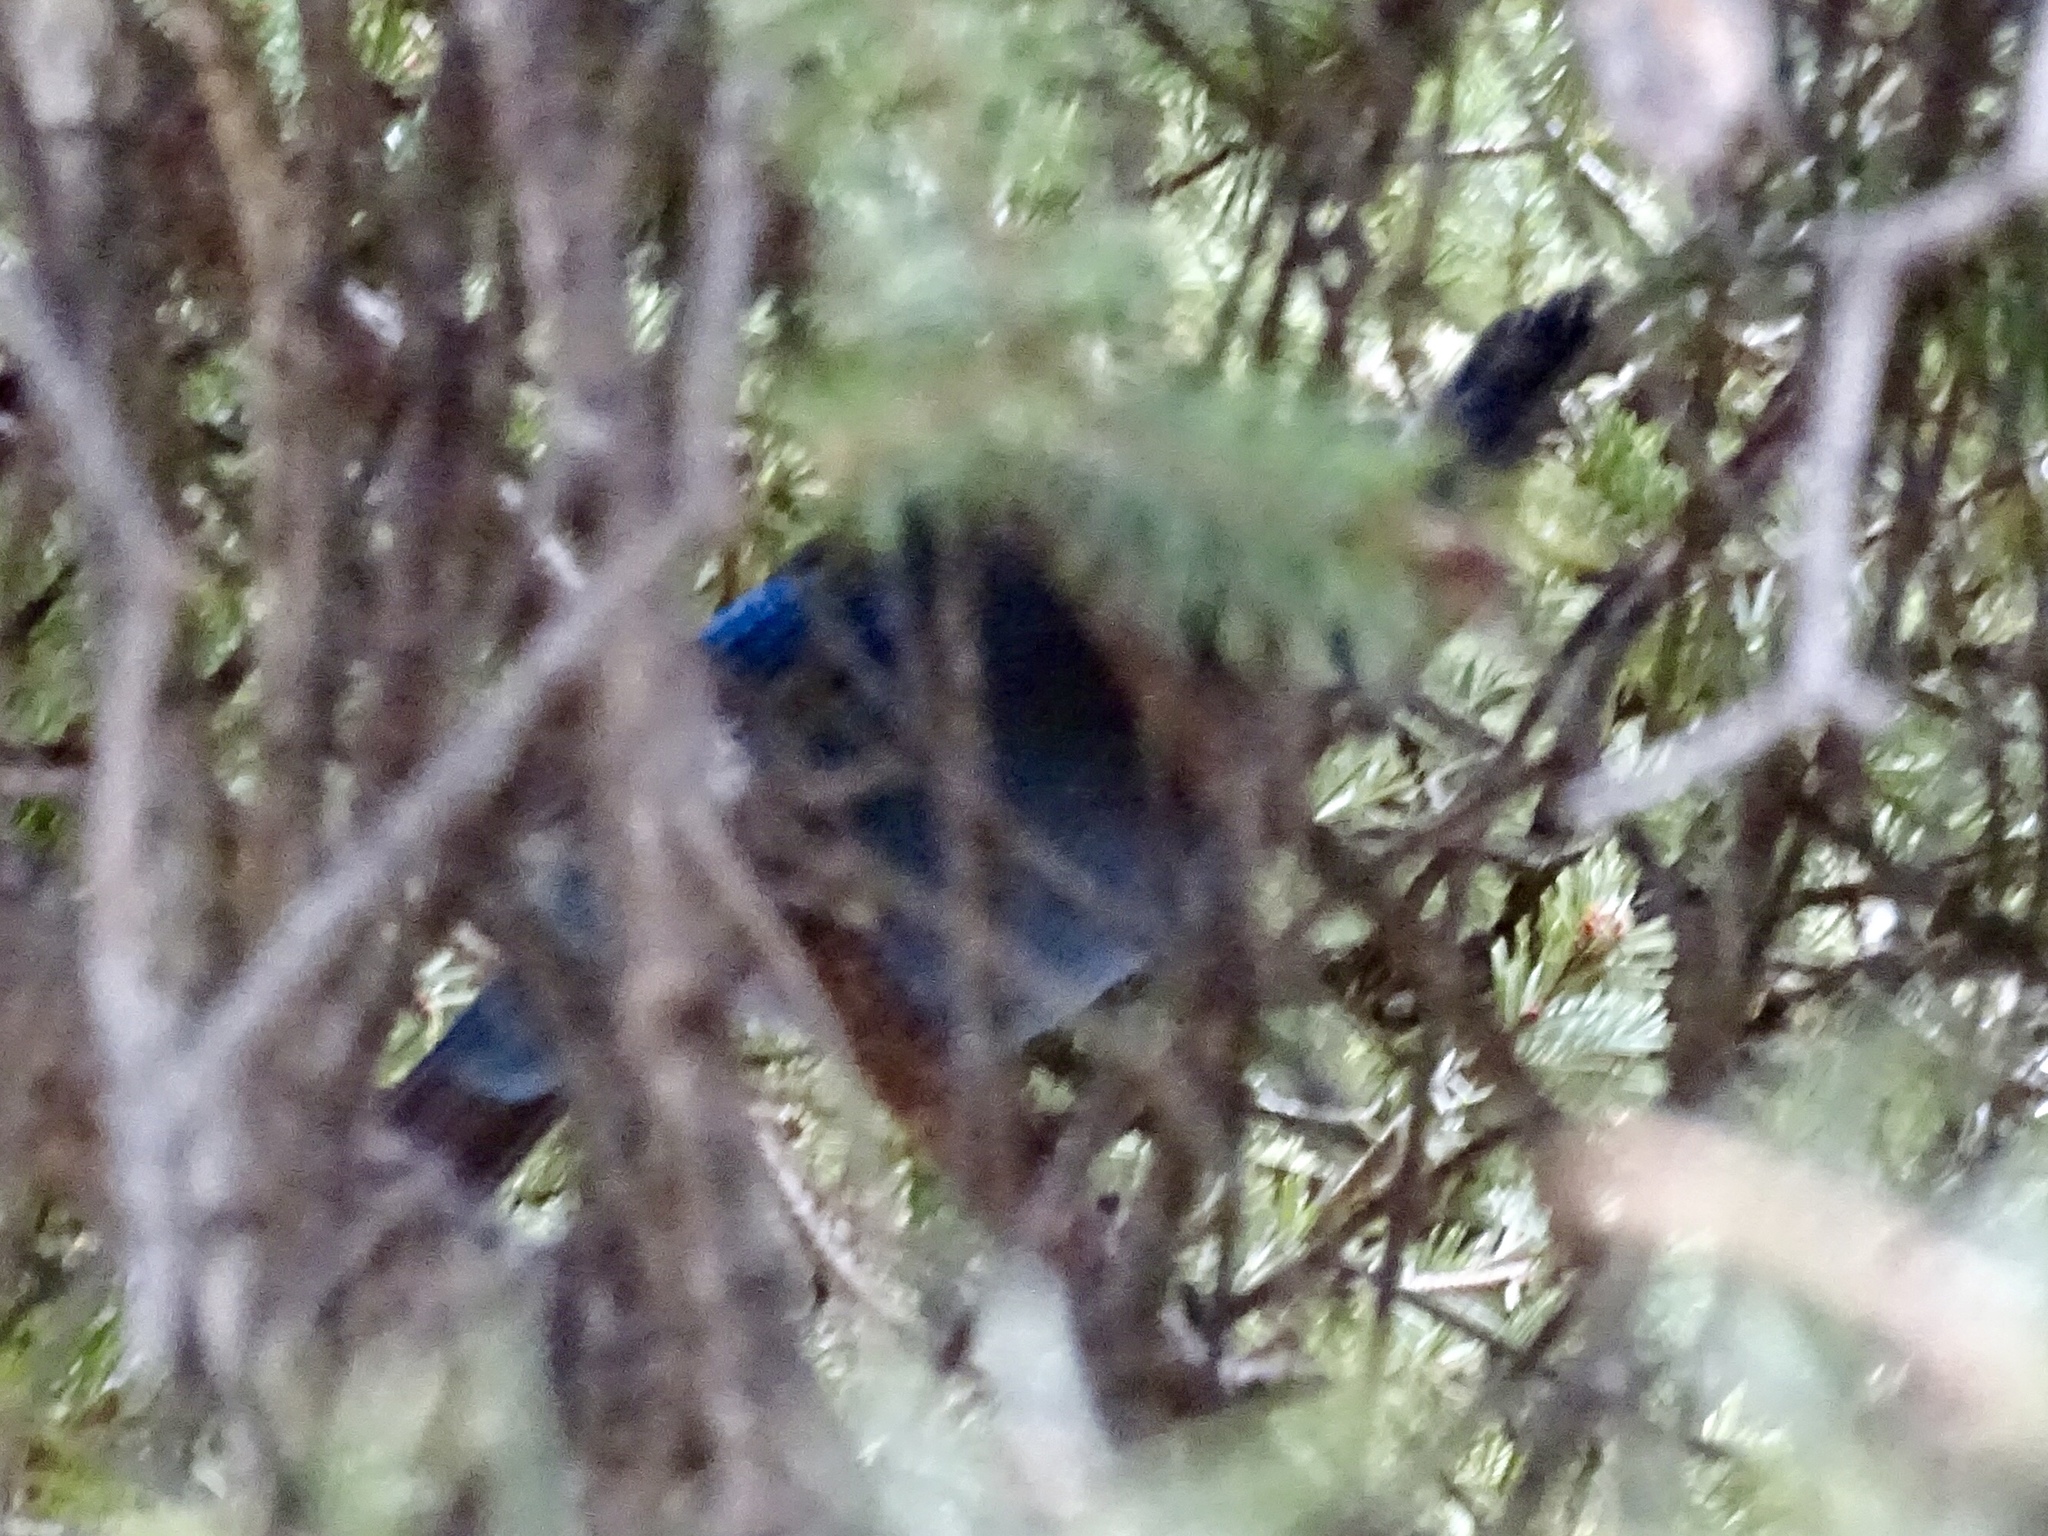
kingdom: Animalia
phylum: Chordata
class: Aves
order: Passeriformes
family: Corvidae
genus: Cyanocitta
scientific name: Cyanocitta stelleri
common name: Steller's jay
